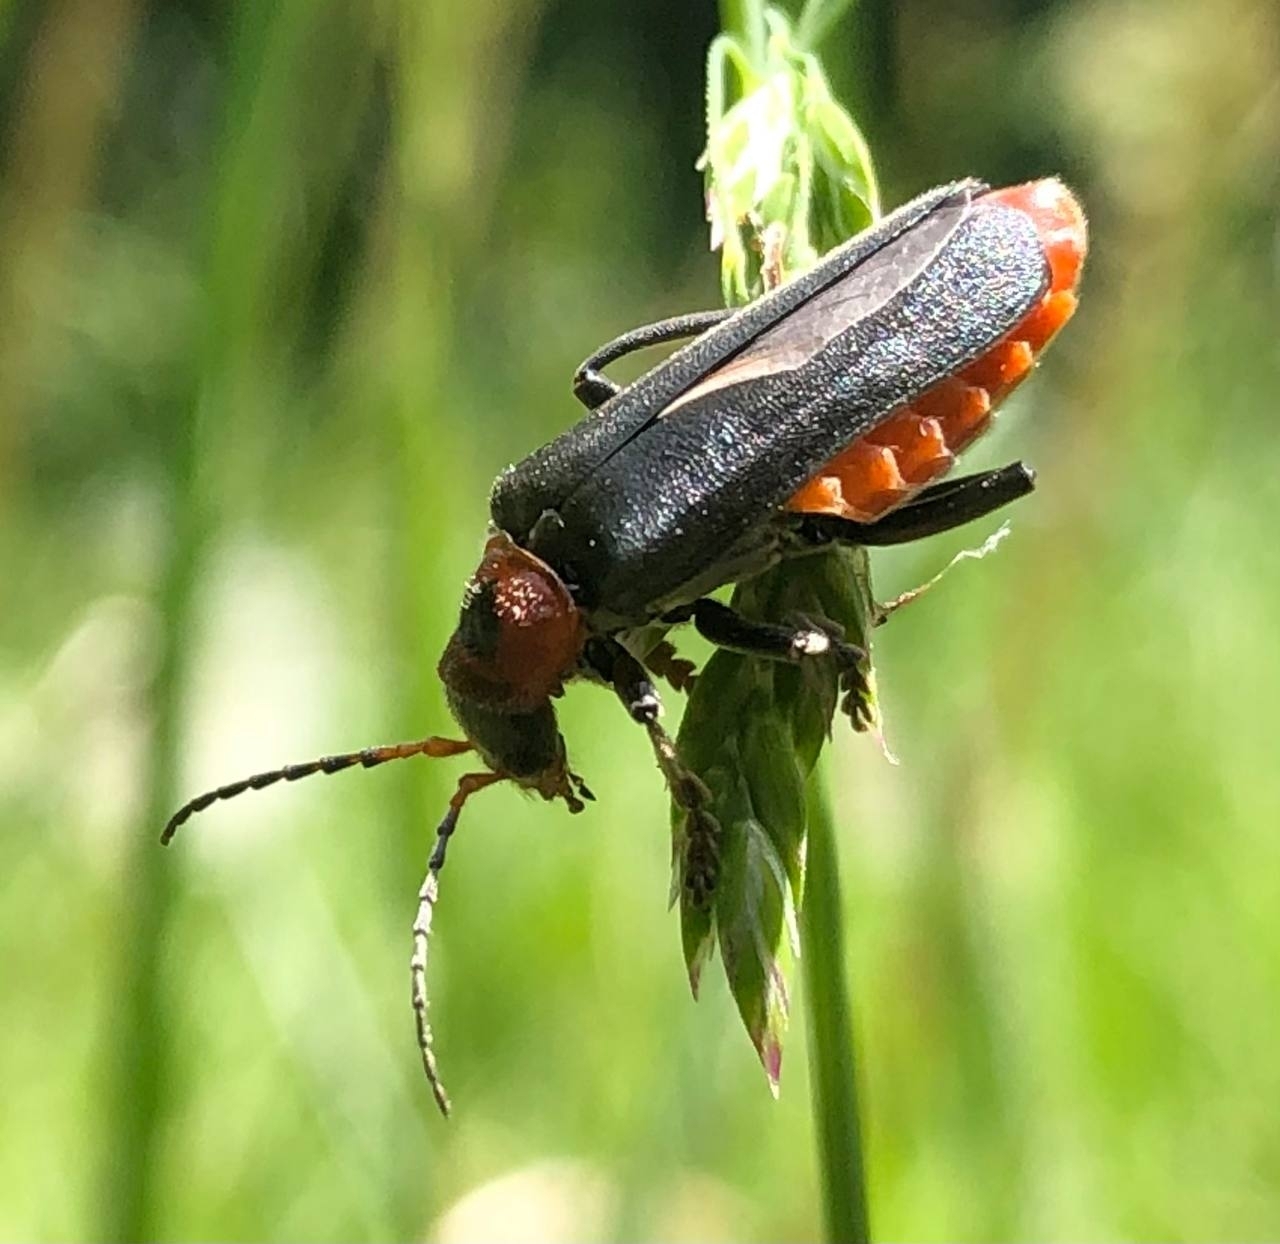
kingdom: Animalia
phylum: Arthropoda
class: Insecta
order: Coleoptera
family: Cantharidae
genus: Cantharis
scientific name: Cantharis rustica
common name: Soldier beetle
